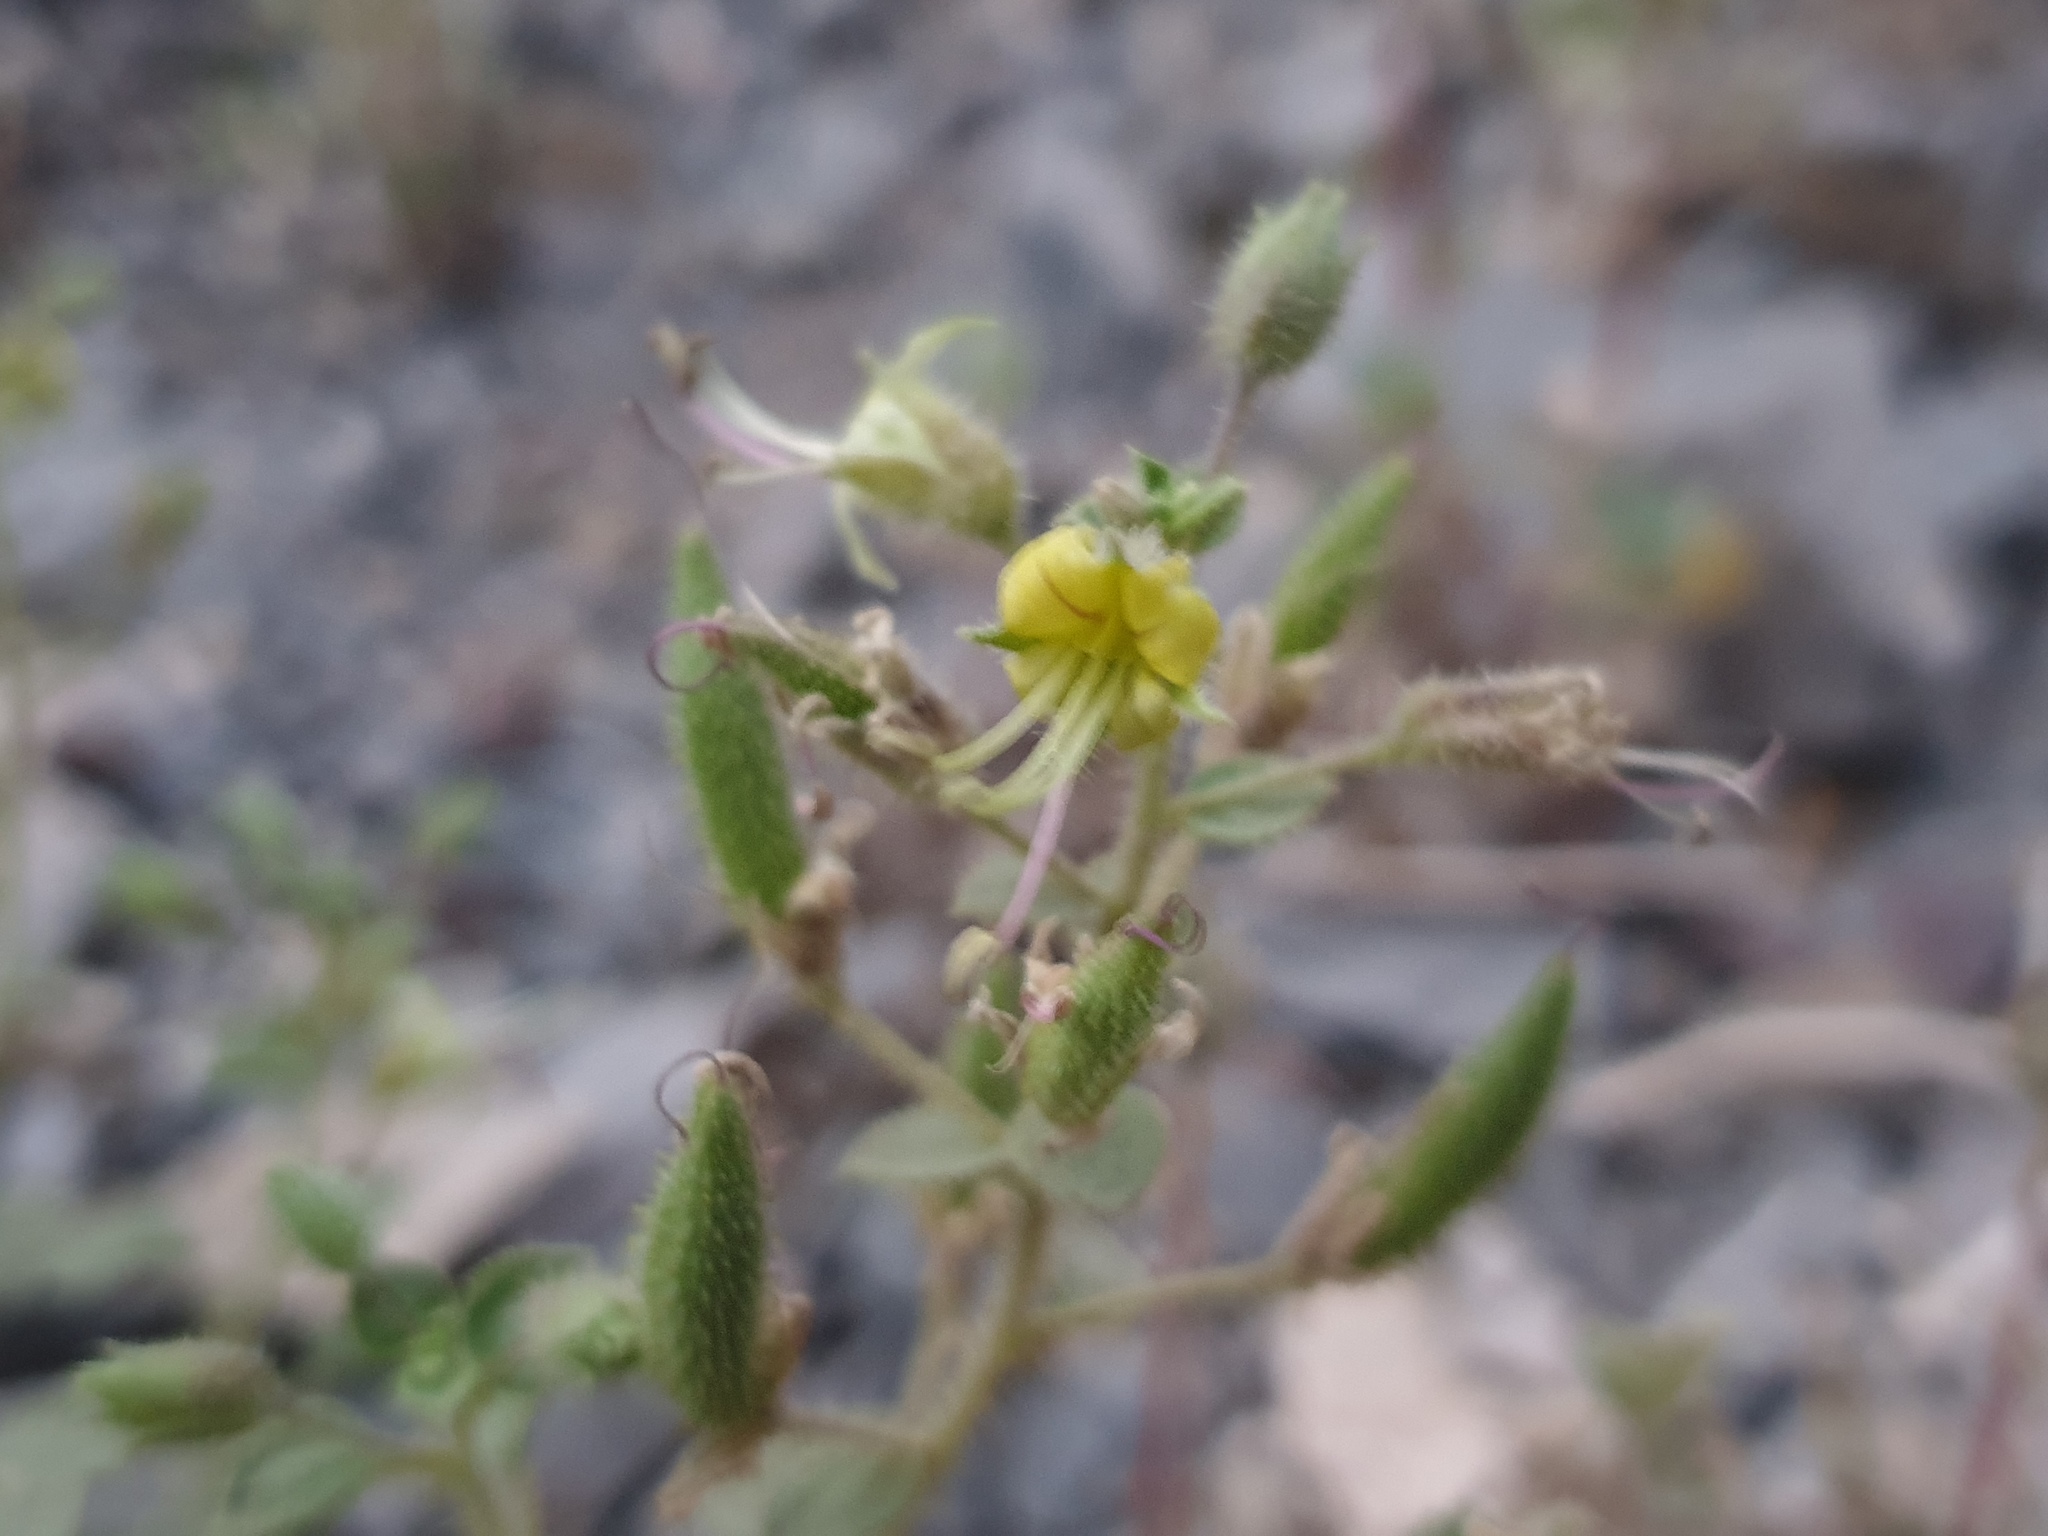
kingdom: Plantae
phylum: Tracheophyta
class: Magnoliopsida
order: Brassicales
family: Cleomaceae
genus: Rorida
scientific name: Rorida droserifolia
